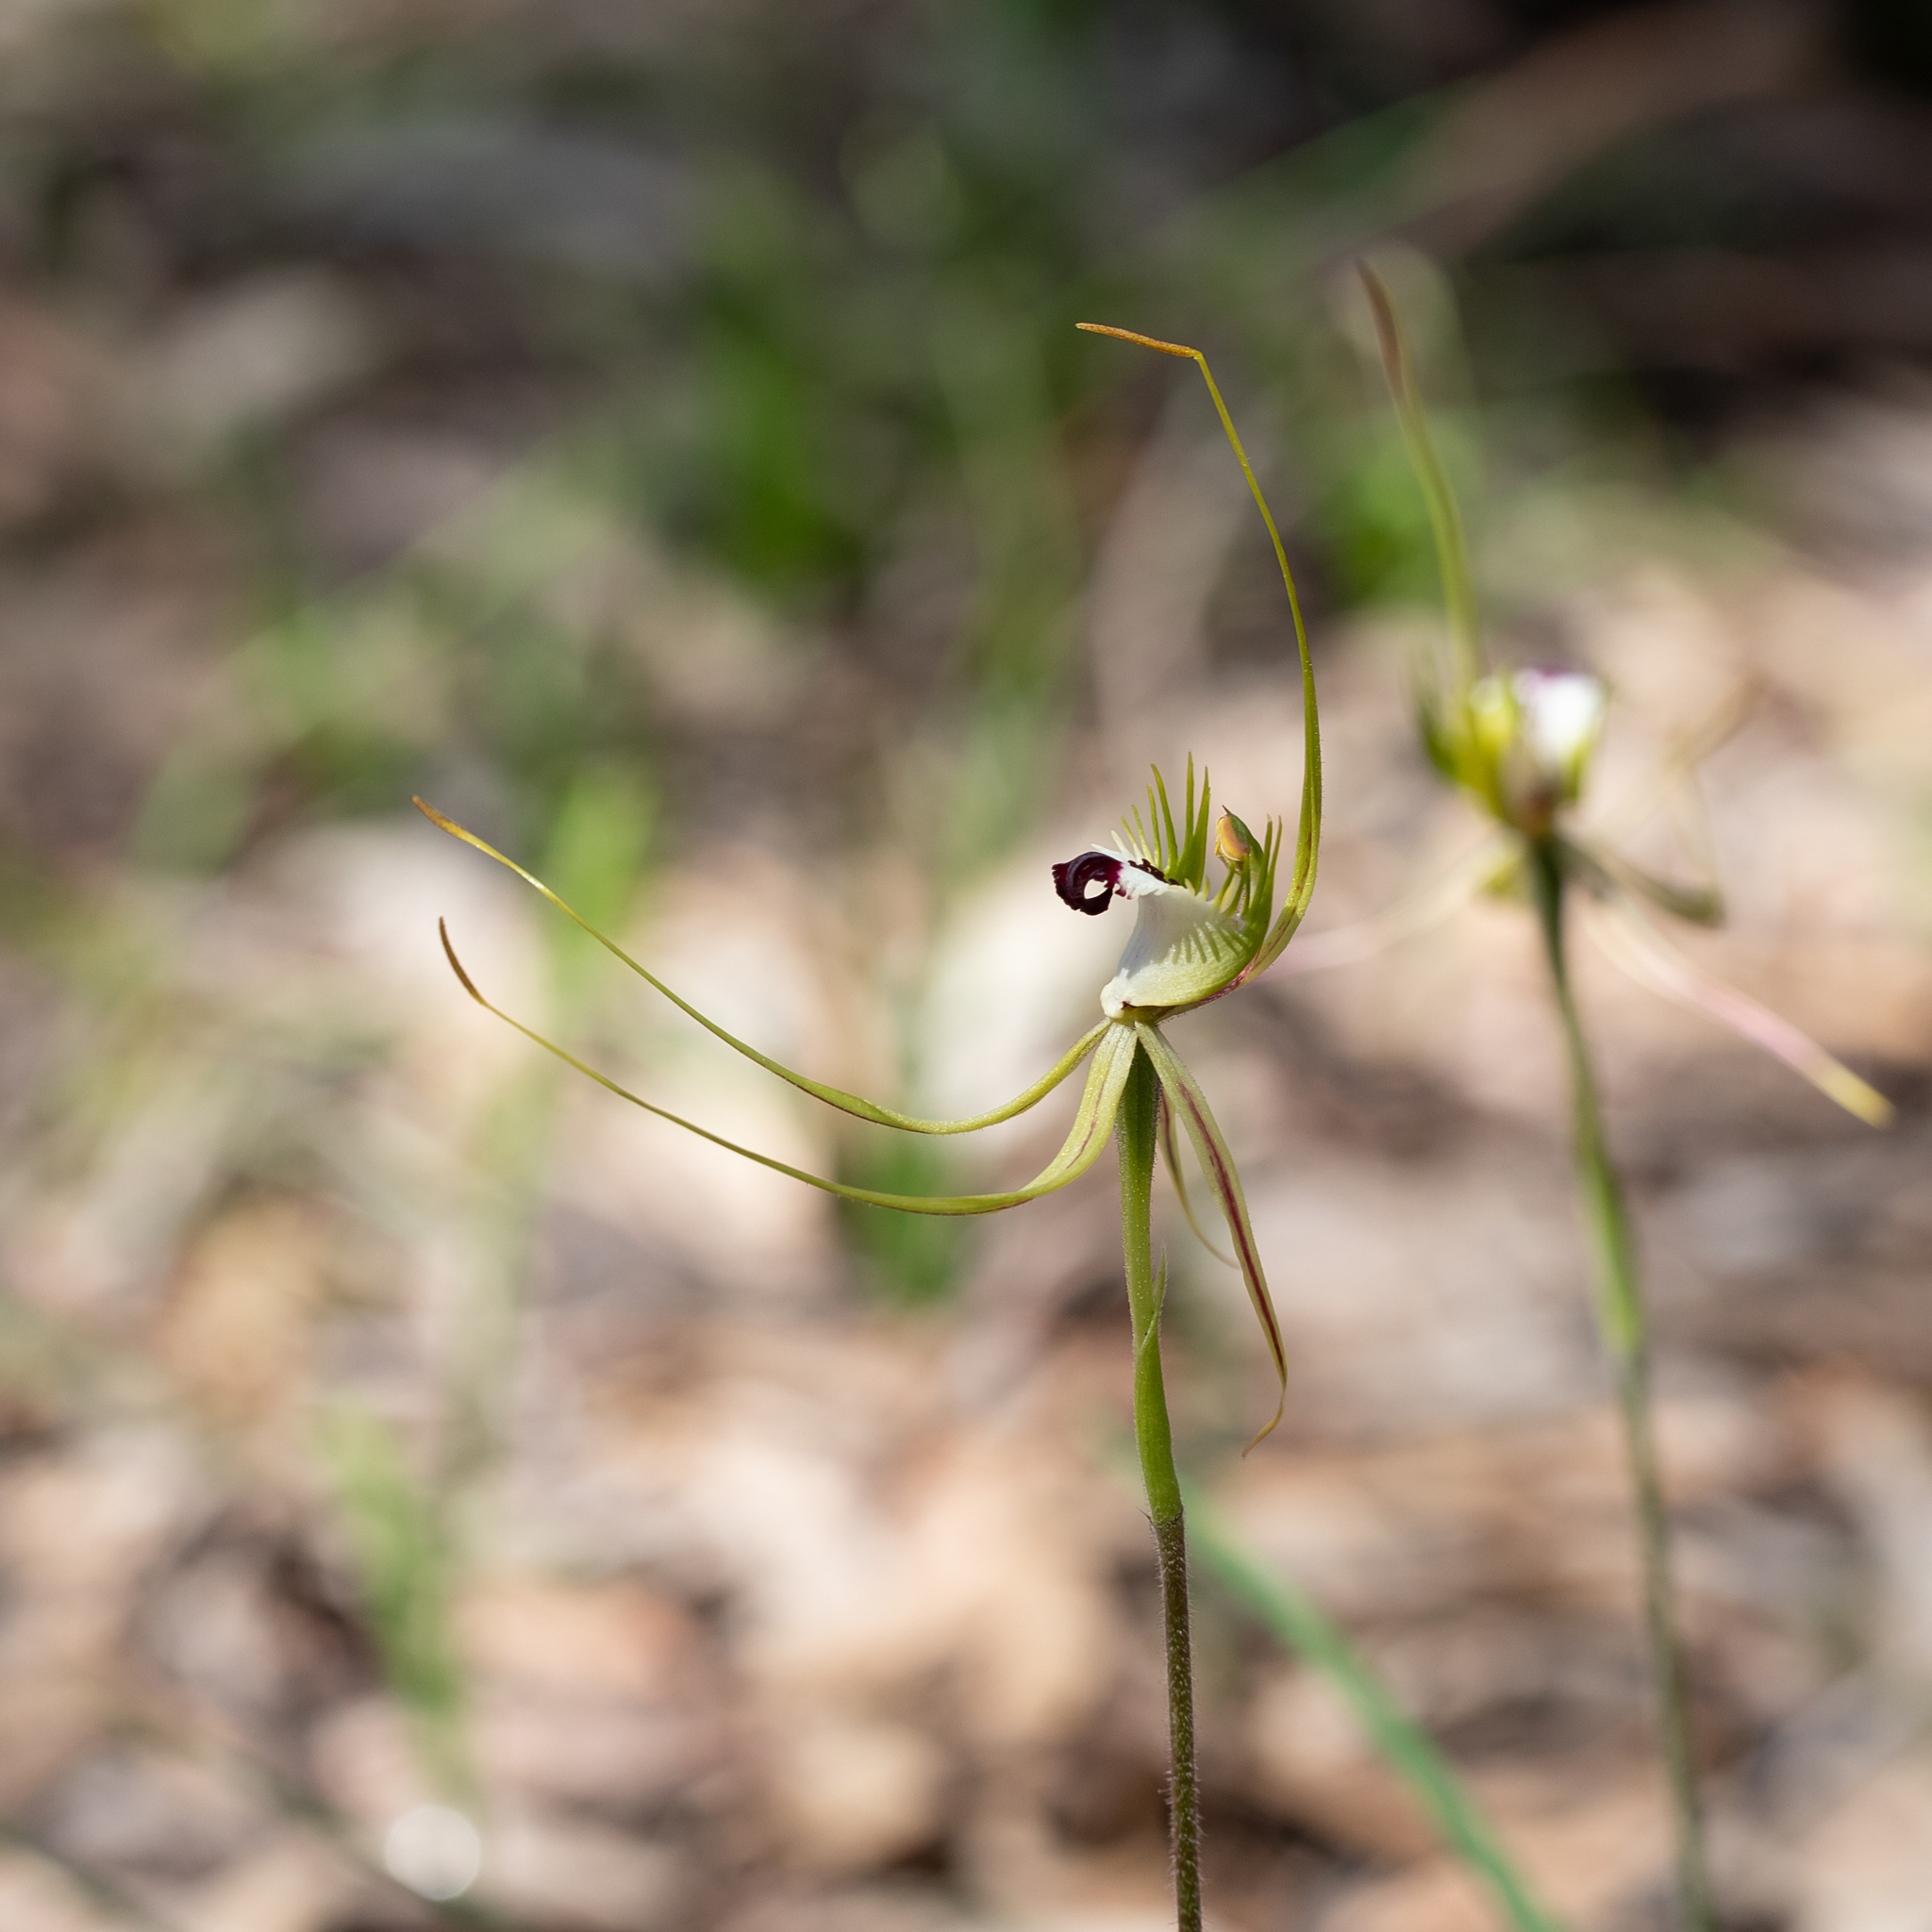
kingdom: Plantae
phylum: Tracheophyta
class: Liliopsida
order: Asparagales
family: Orchidaceae
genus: Caladenia
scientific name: Caladenia tentaculata
